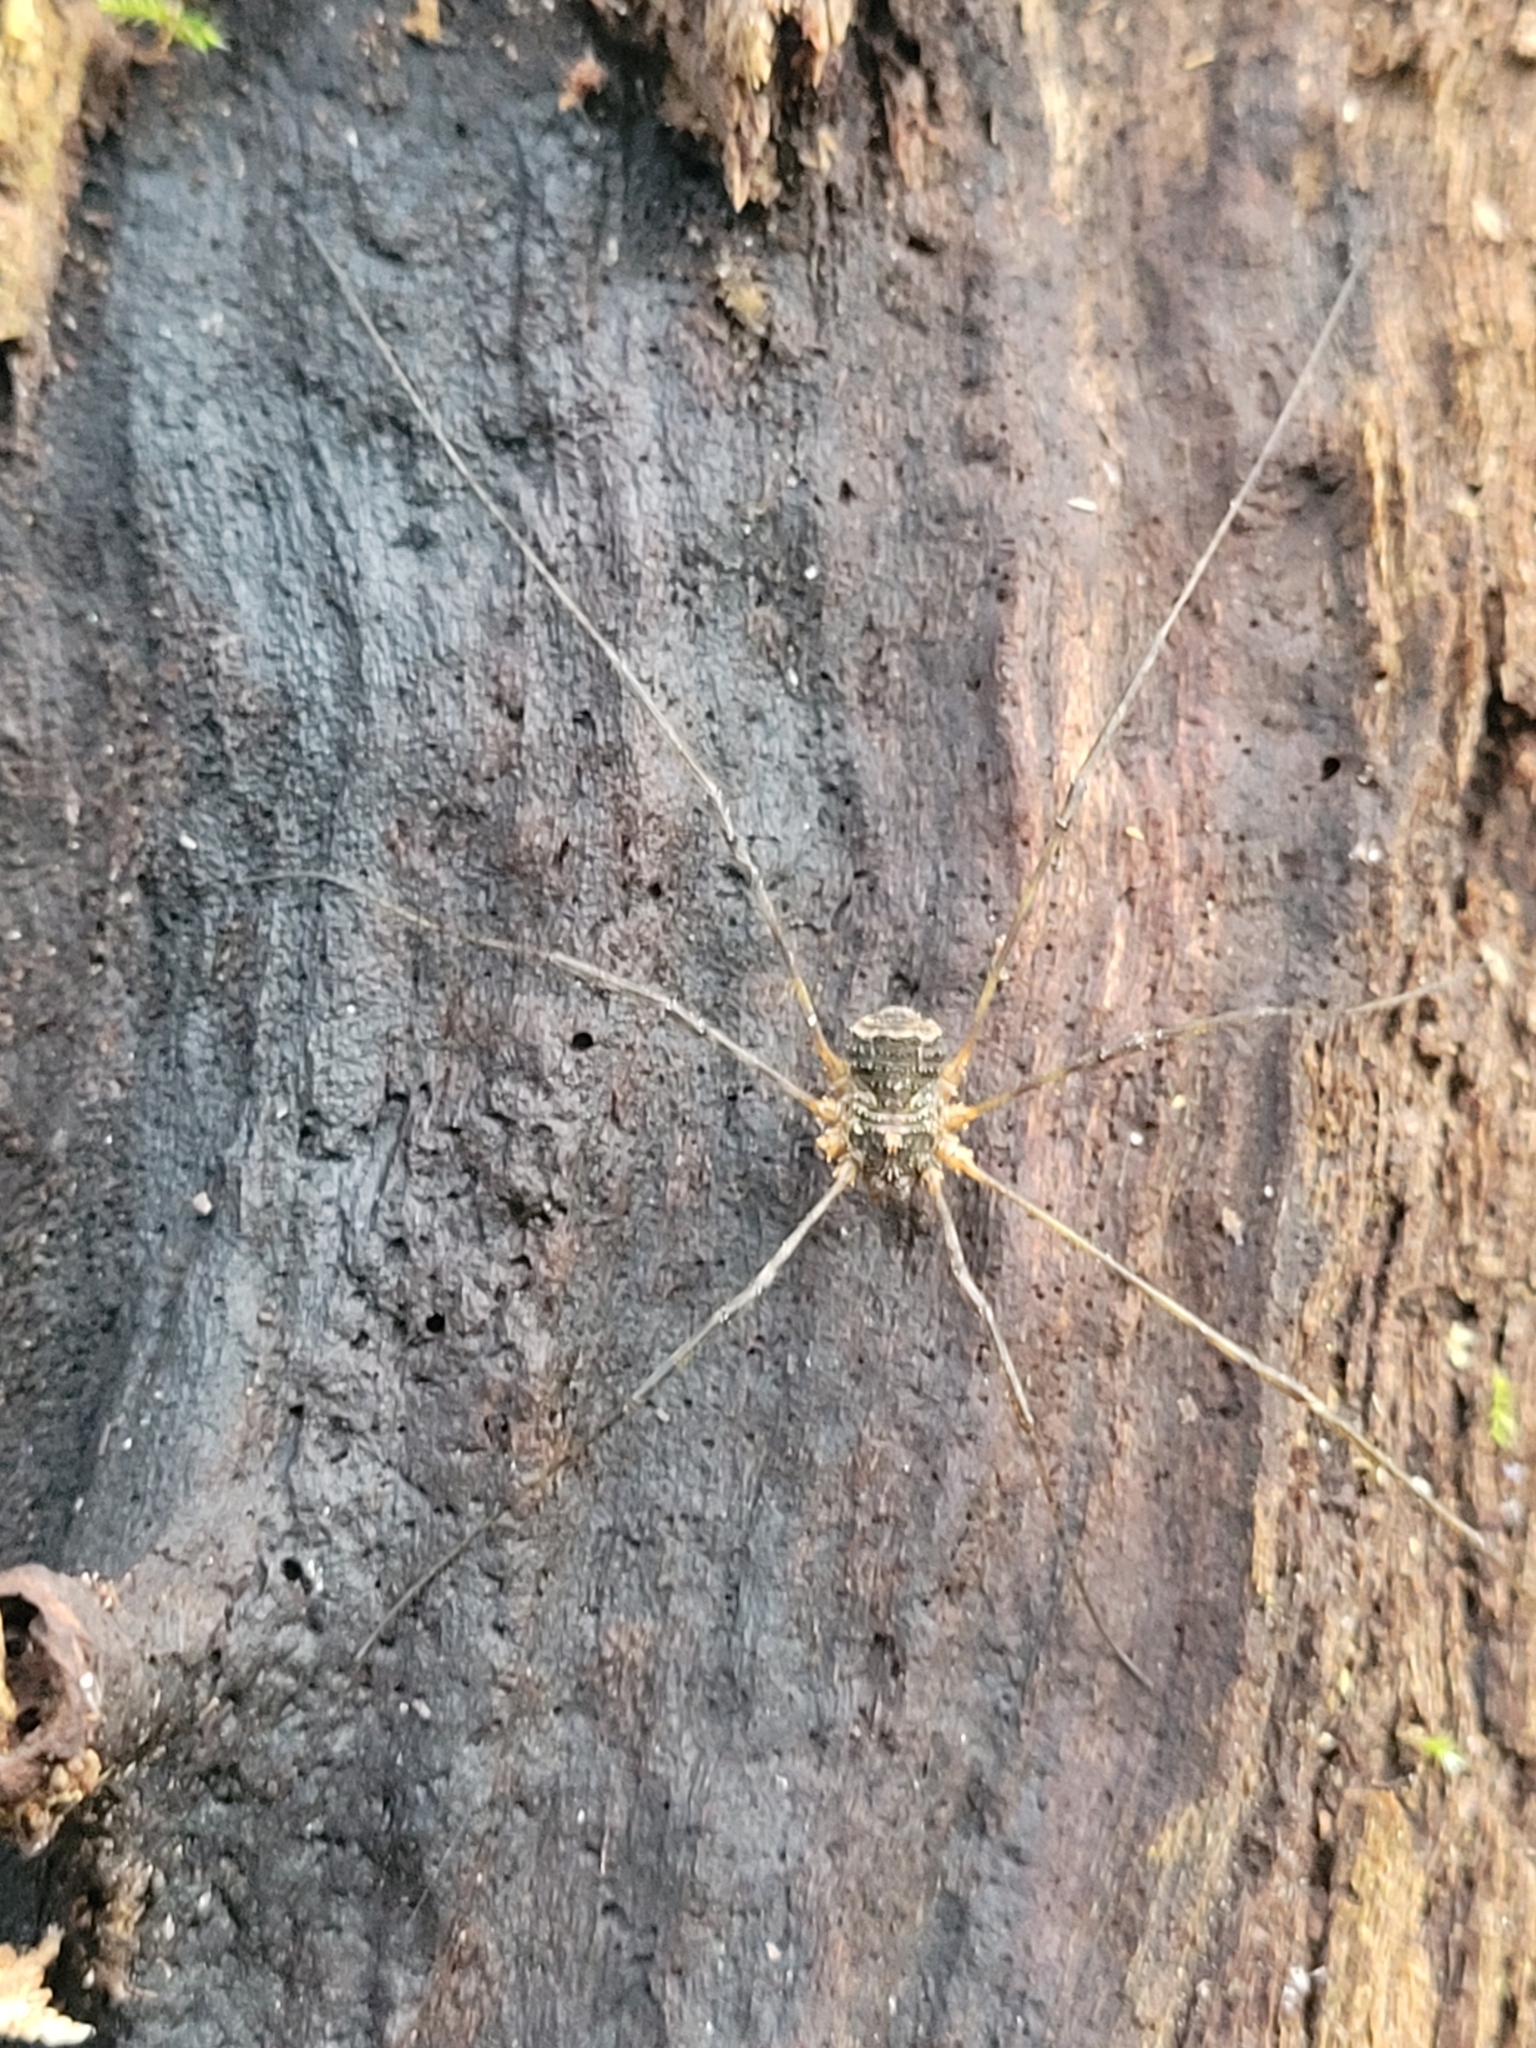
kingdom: Animalia
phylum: Arthropoda
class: Arachnida
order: Opiliones
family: Phalangiidae
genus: Lacinius
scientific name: Lacinius dentiger
